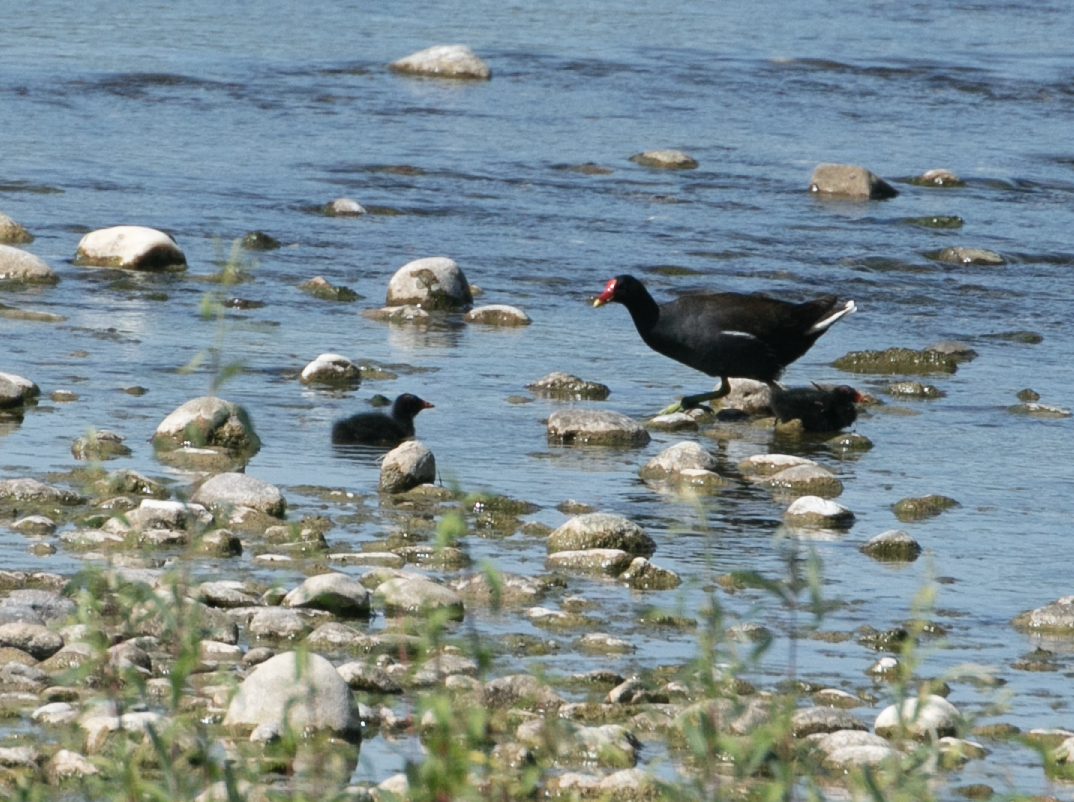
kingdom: Animalia
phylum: Chordata
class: Aves
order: Gruiformes
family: Rallidae
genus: Gallinula
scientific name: Gallinula chloropus
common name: Common moorhen
